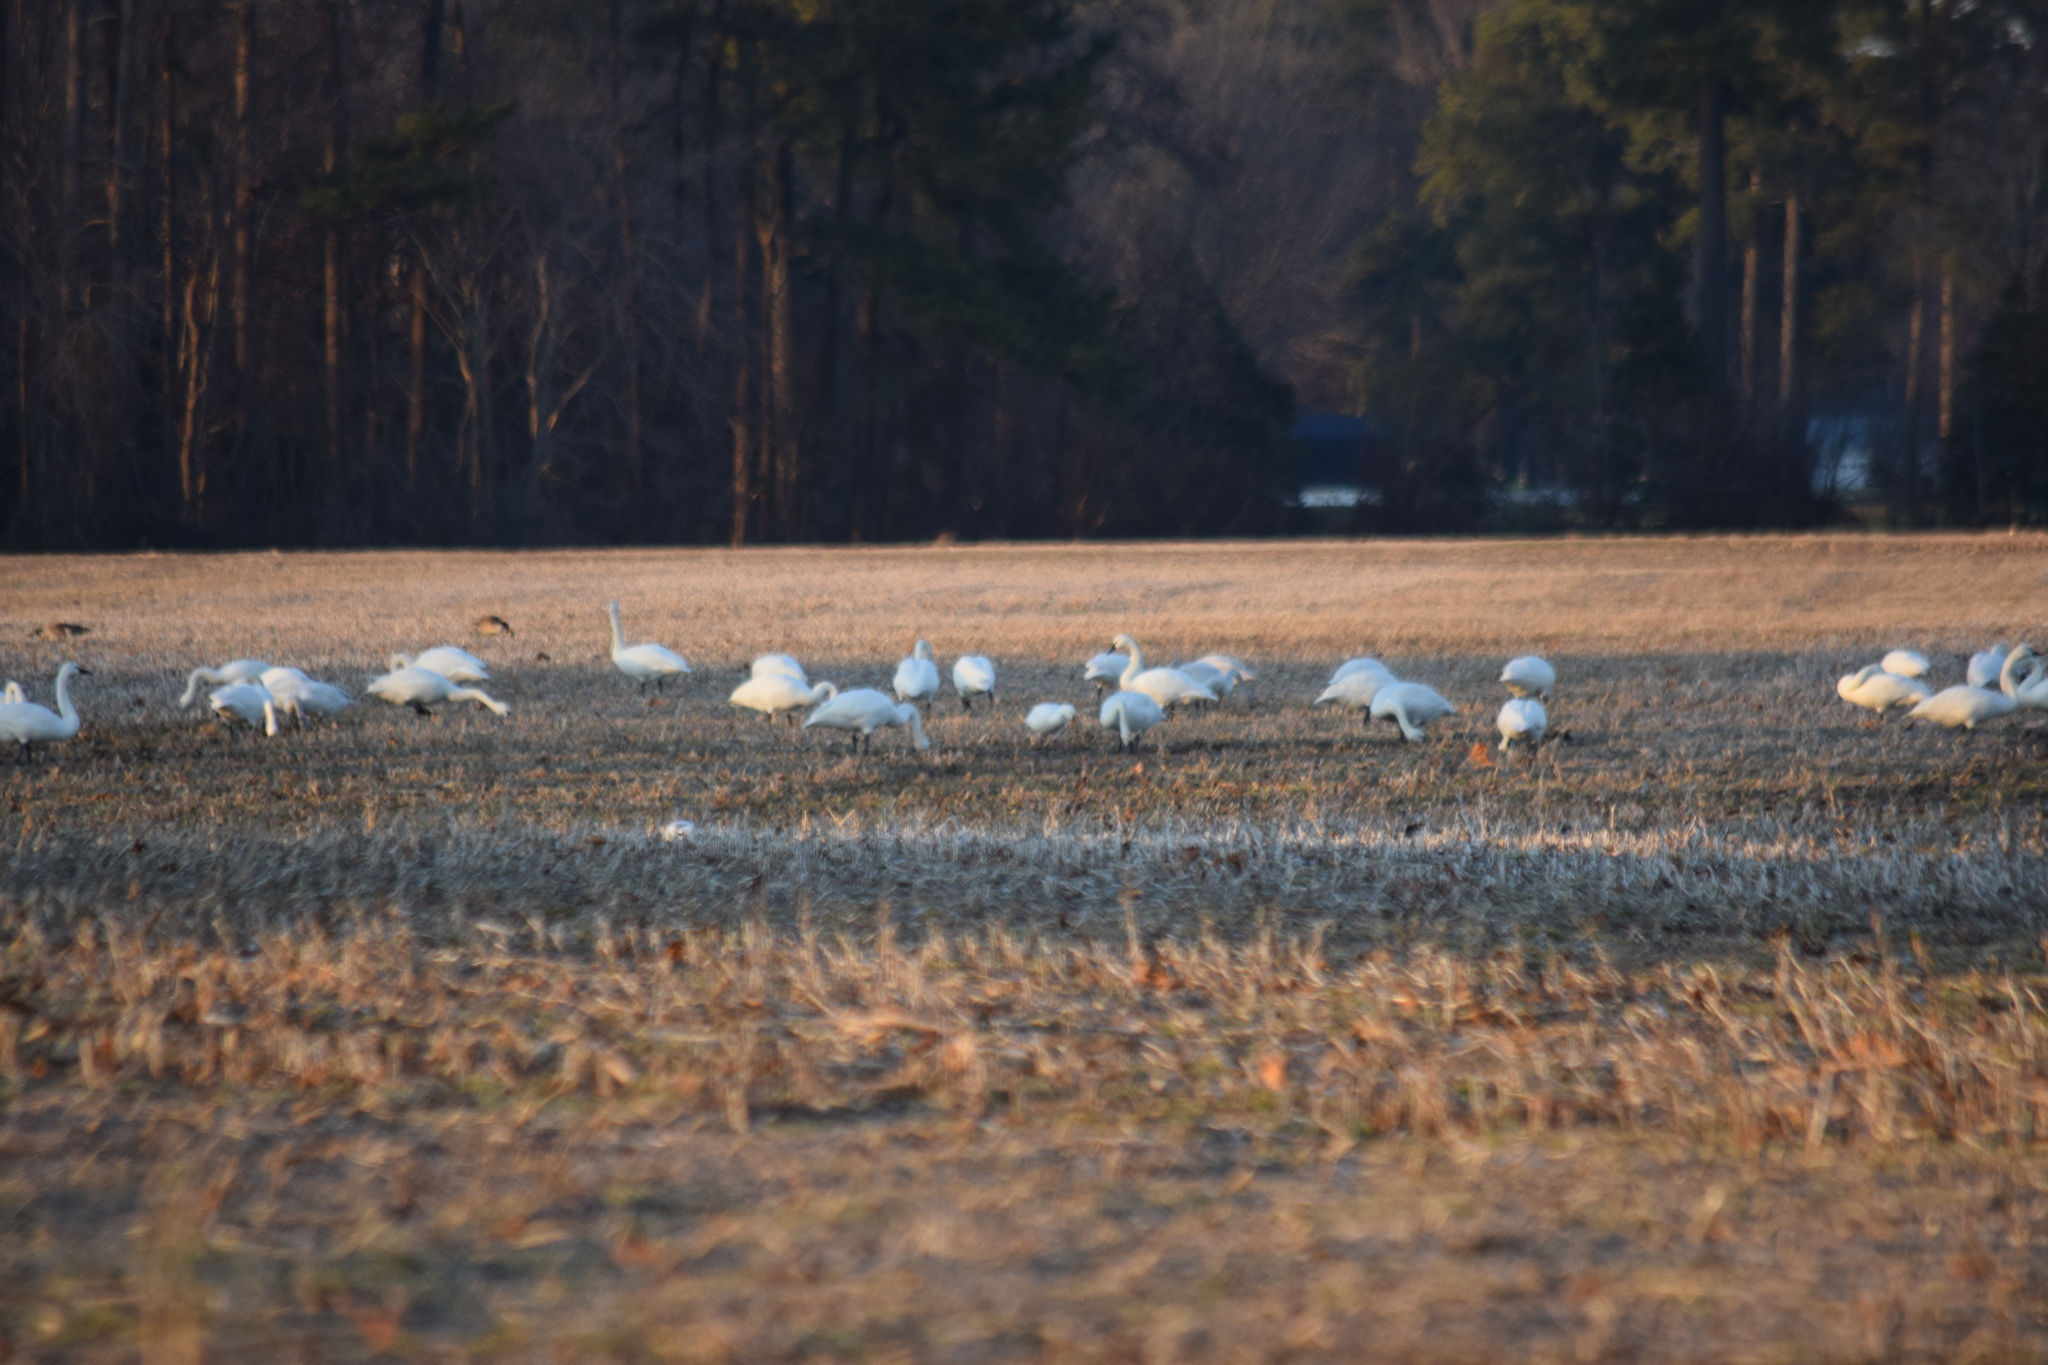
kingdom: Animalia
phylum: Chordata
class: Aves
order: Anseriformes
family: Anatidae
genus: Anser
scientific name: Anser caerulescens
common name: Snow goose
